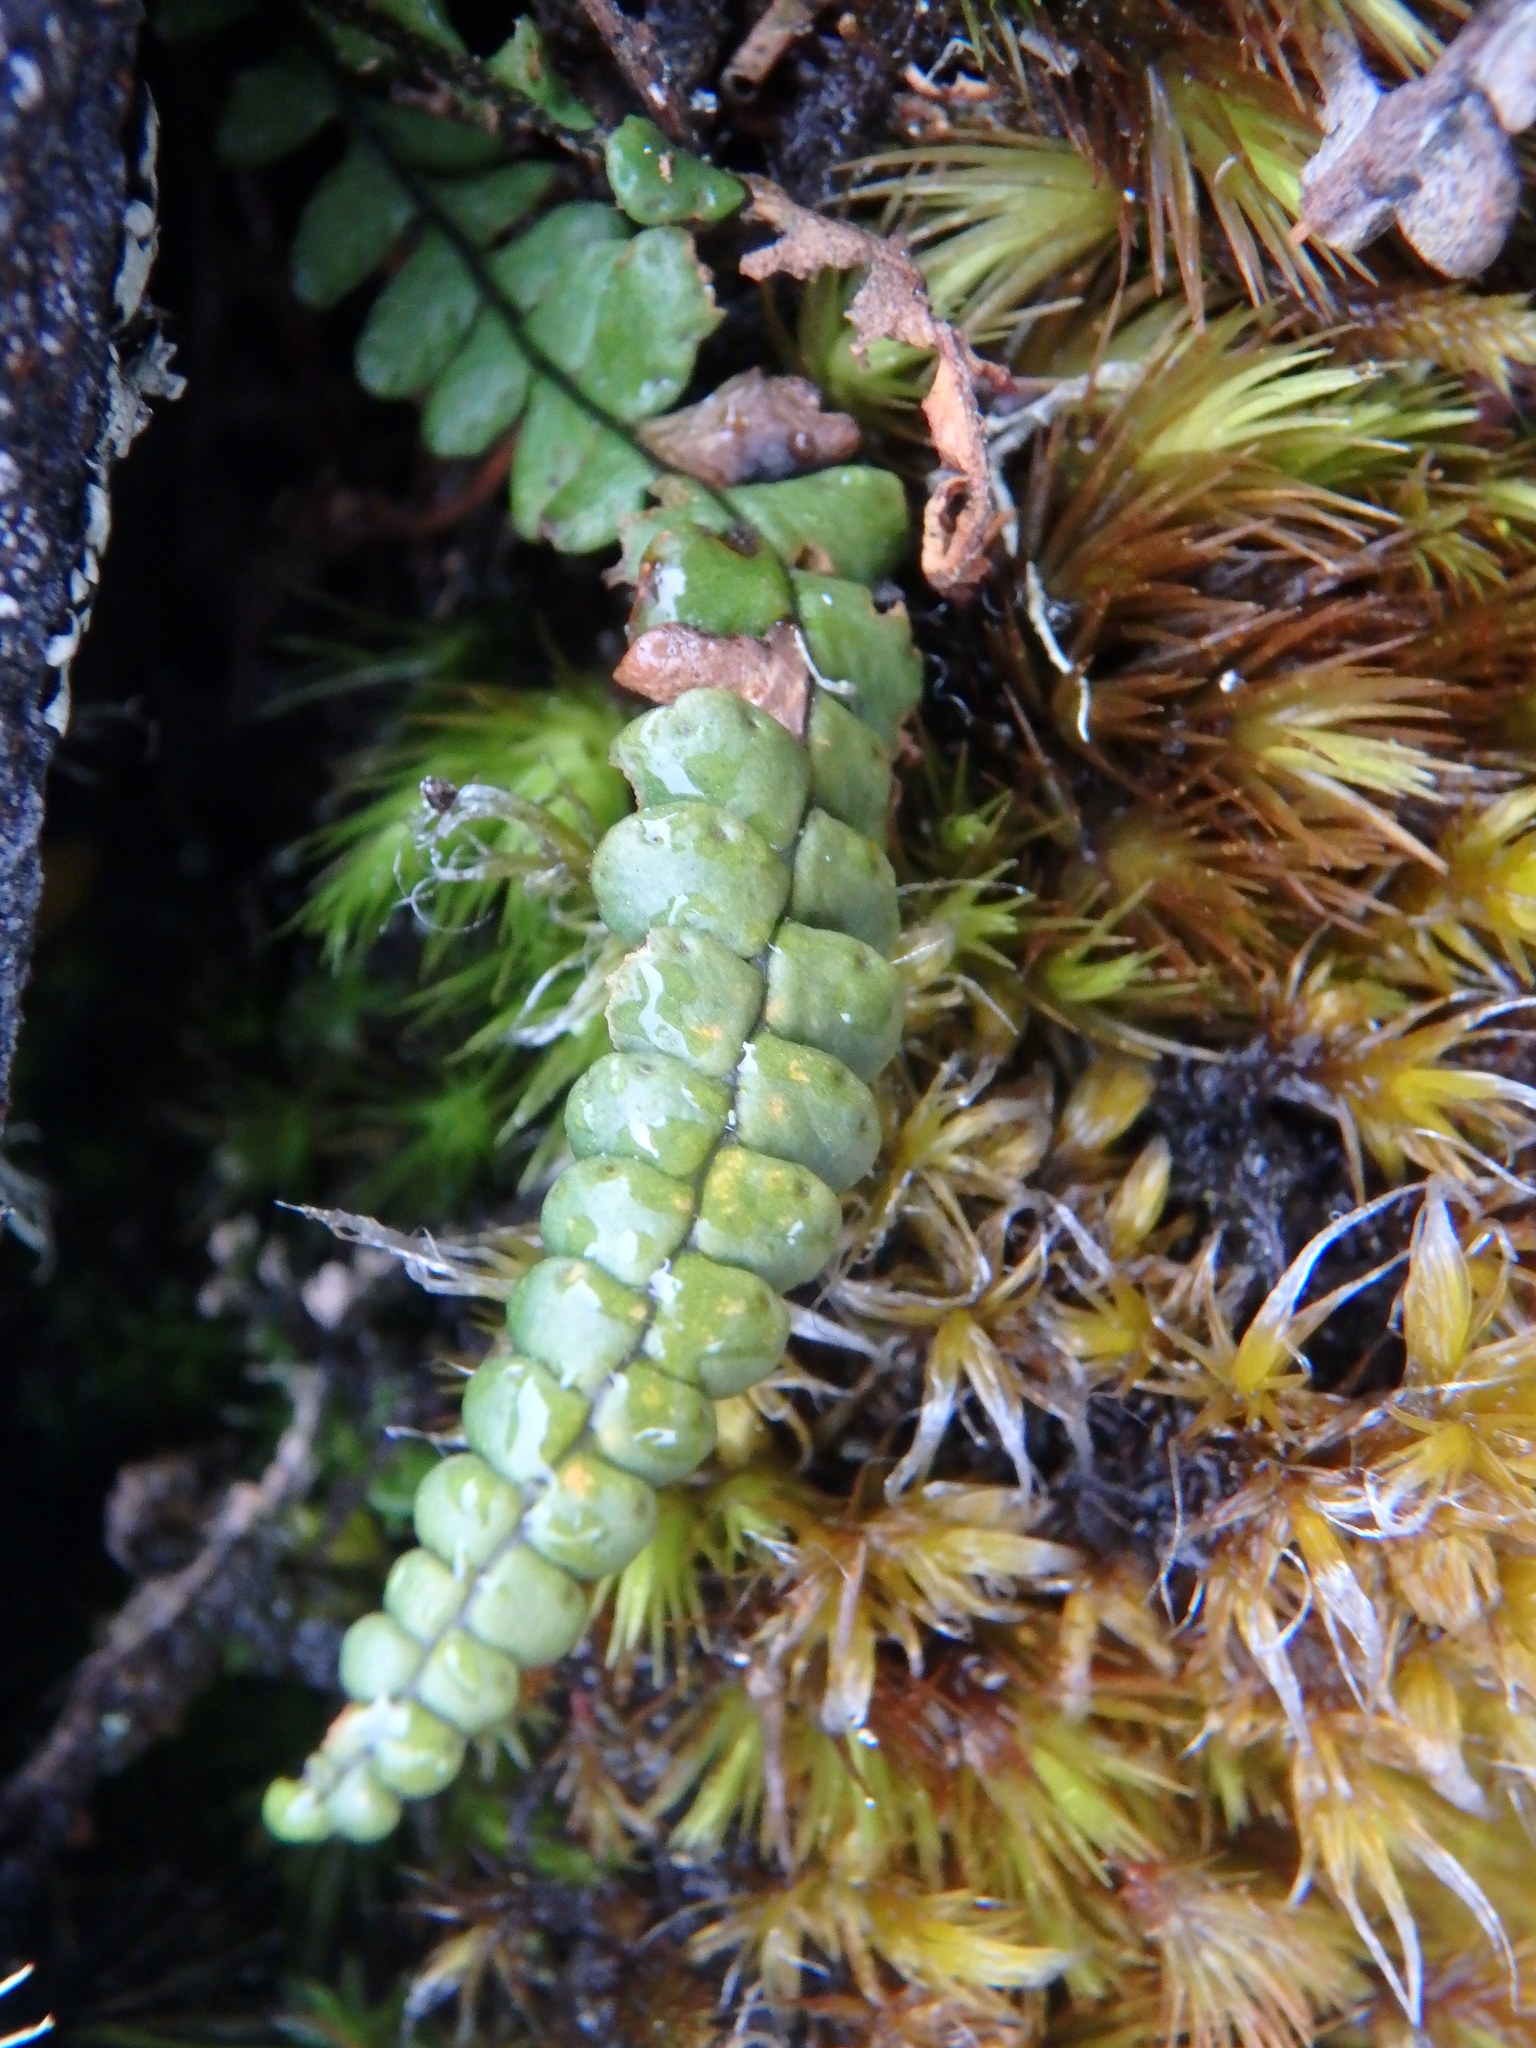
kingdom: Plantae
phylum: Tracheophyta
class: Polypodiopsida
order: Polypodiales
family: Polypodiaceae
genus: Melpomene
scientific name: Melpomene peruviana
